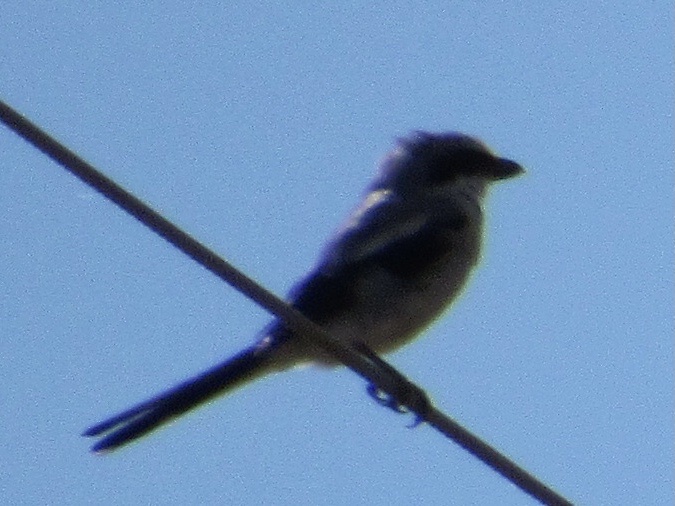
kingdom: Animalia
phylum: Chordata
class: Aves
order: Passeriformes
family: Laniidae
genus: Lanius
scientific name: Lanius ludovicianus
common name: Loggerhead shrike
